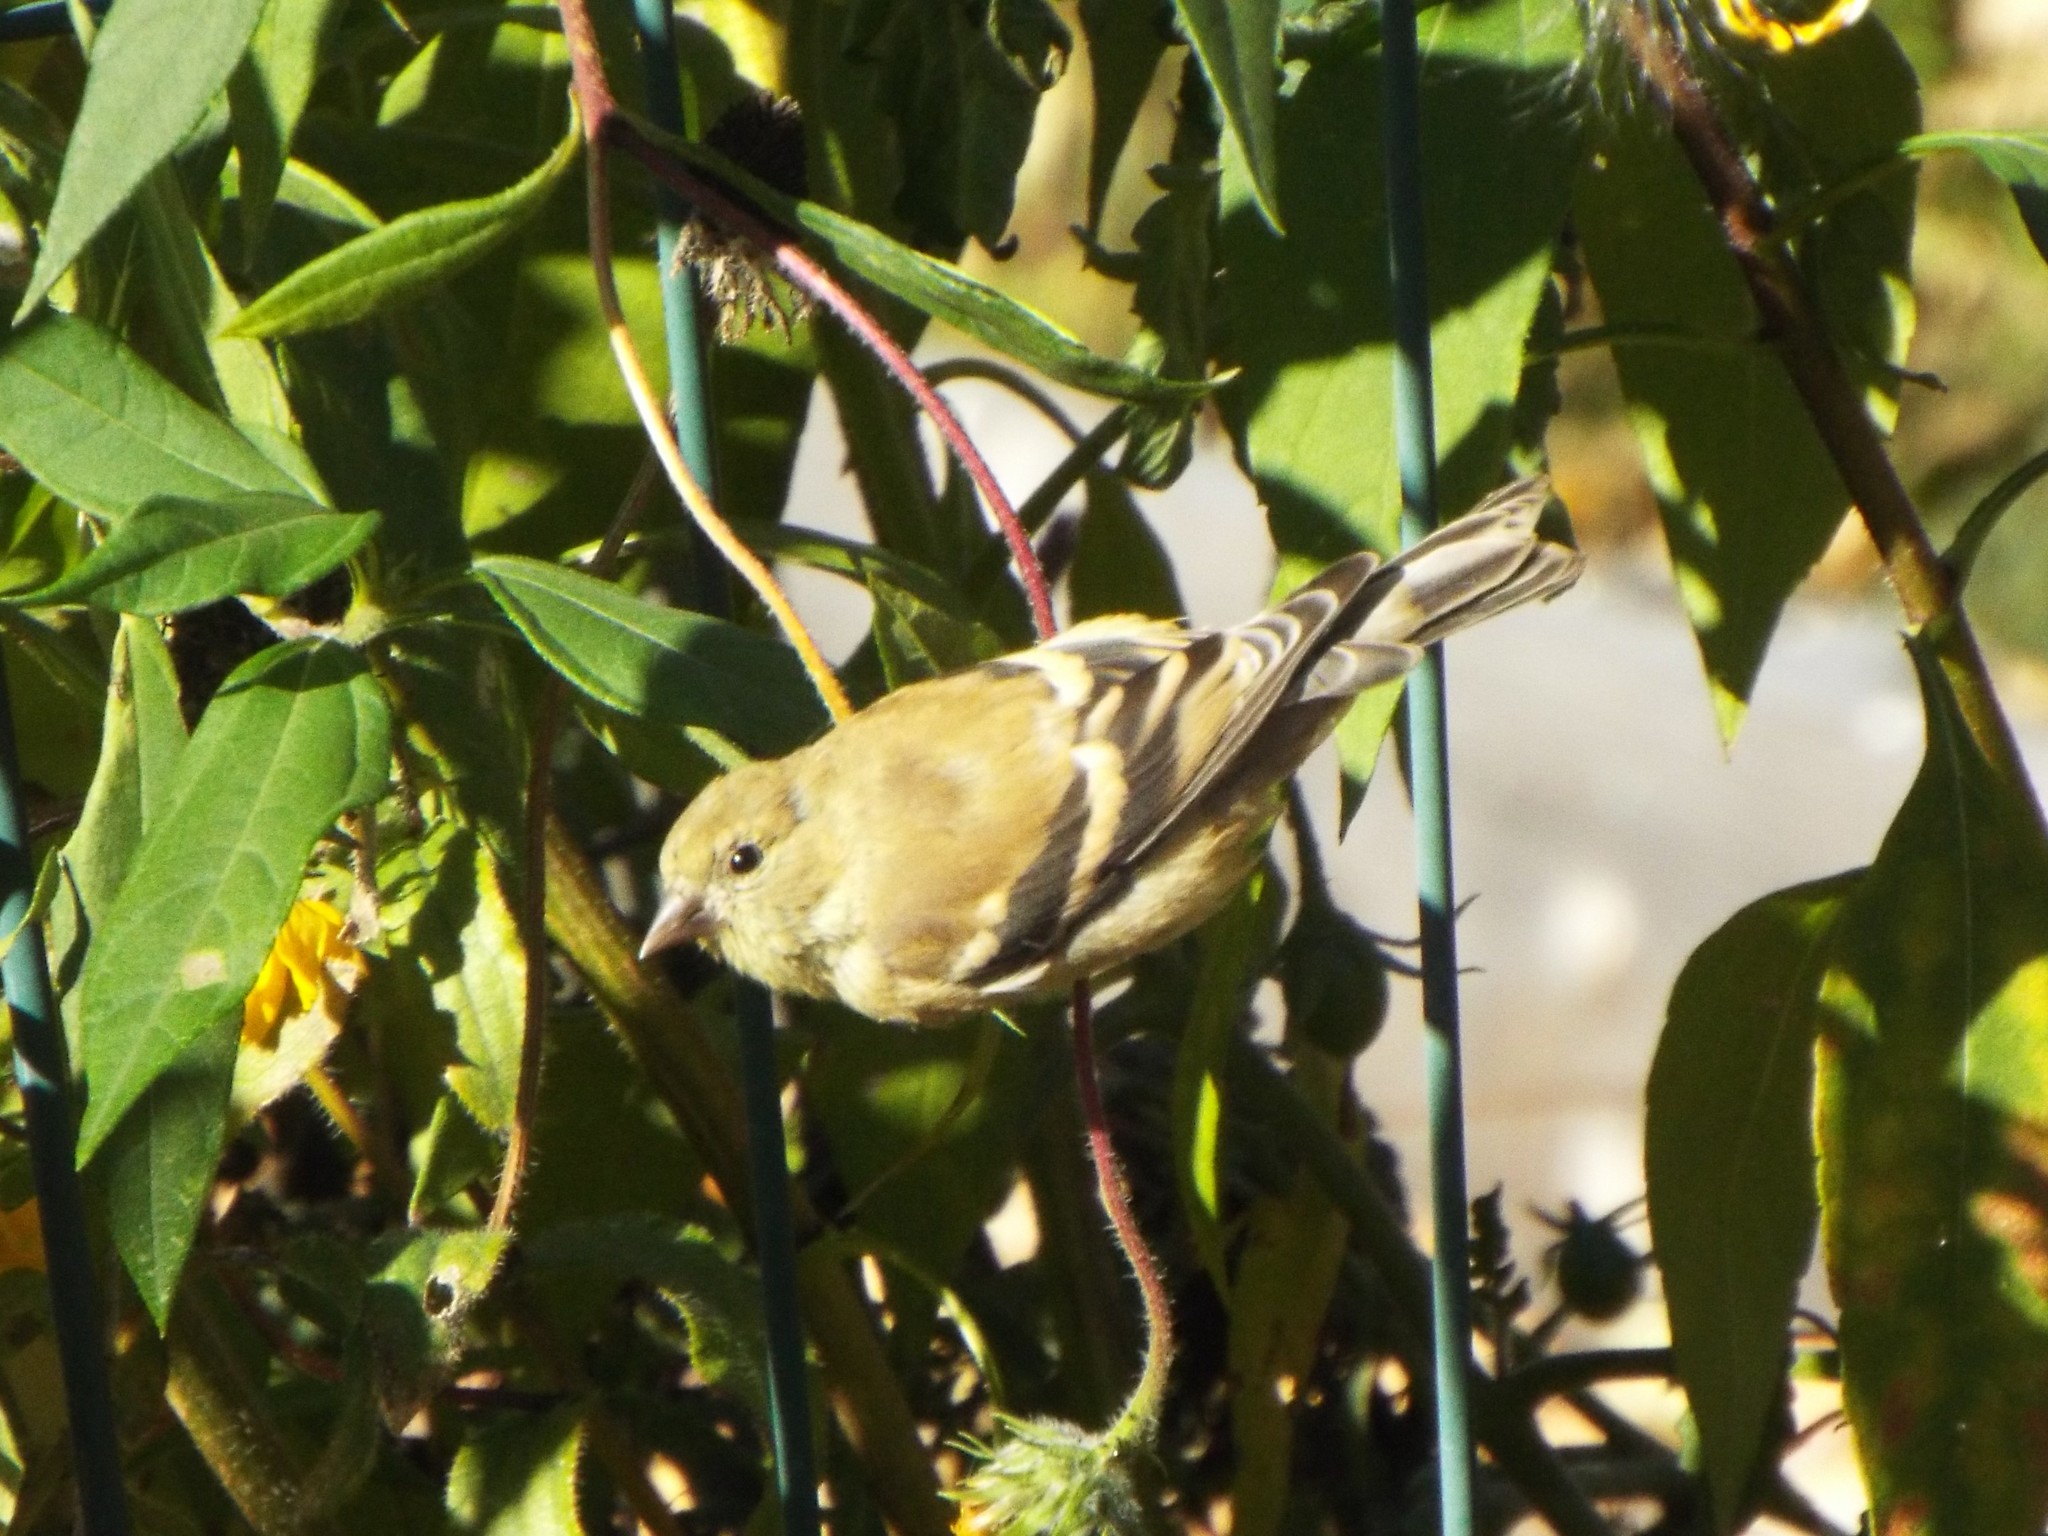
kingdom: Animalia
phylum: Chordata
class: Aves
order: Passeriformes
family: Fringillidae
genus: Spinus
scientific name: Spinus tristis
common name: American goldfinch
